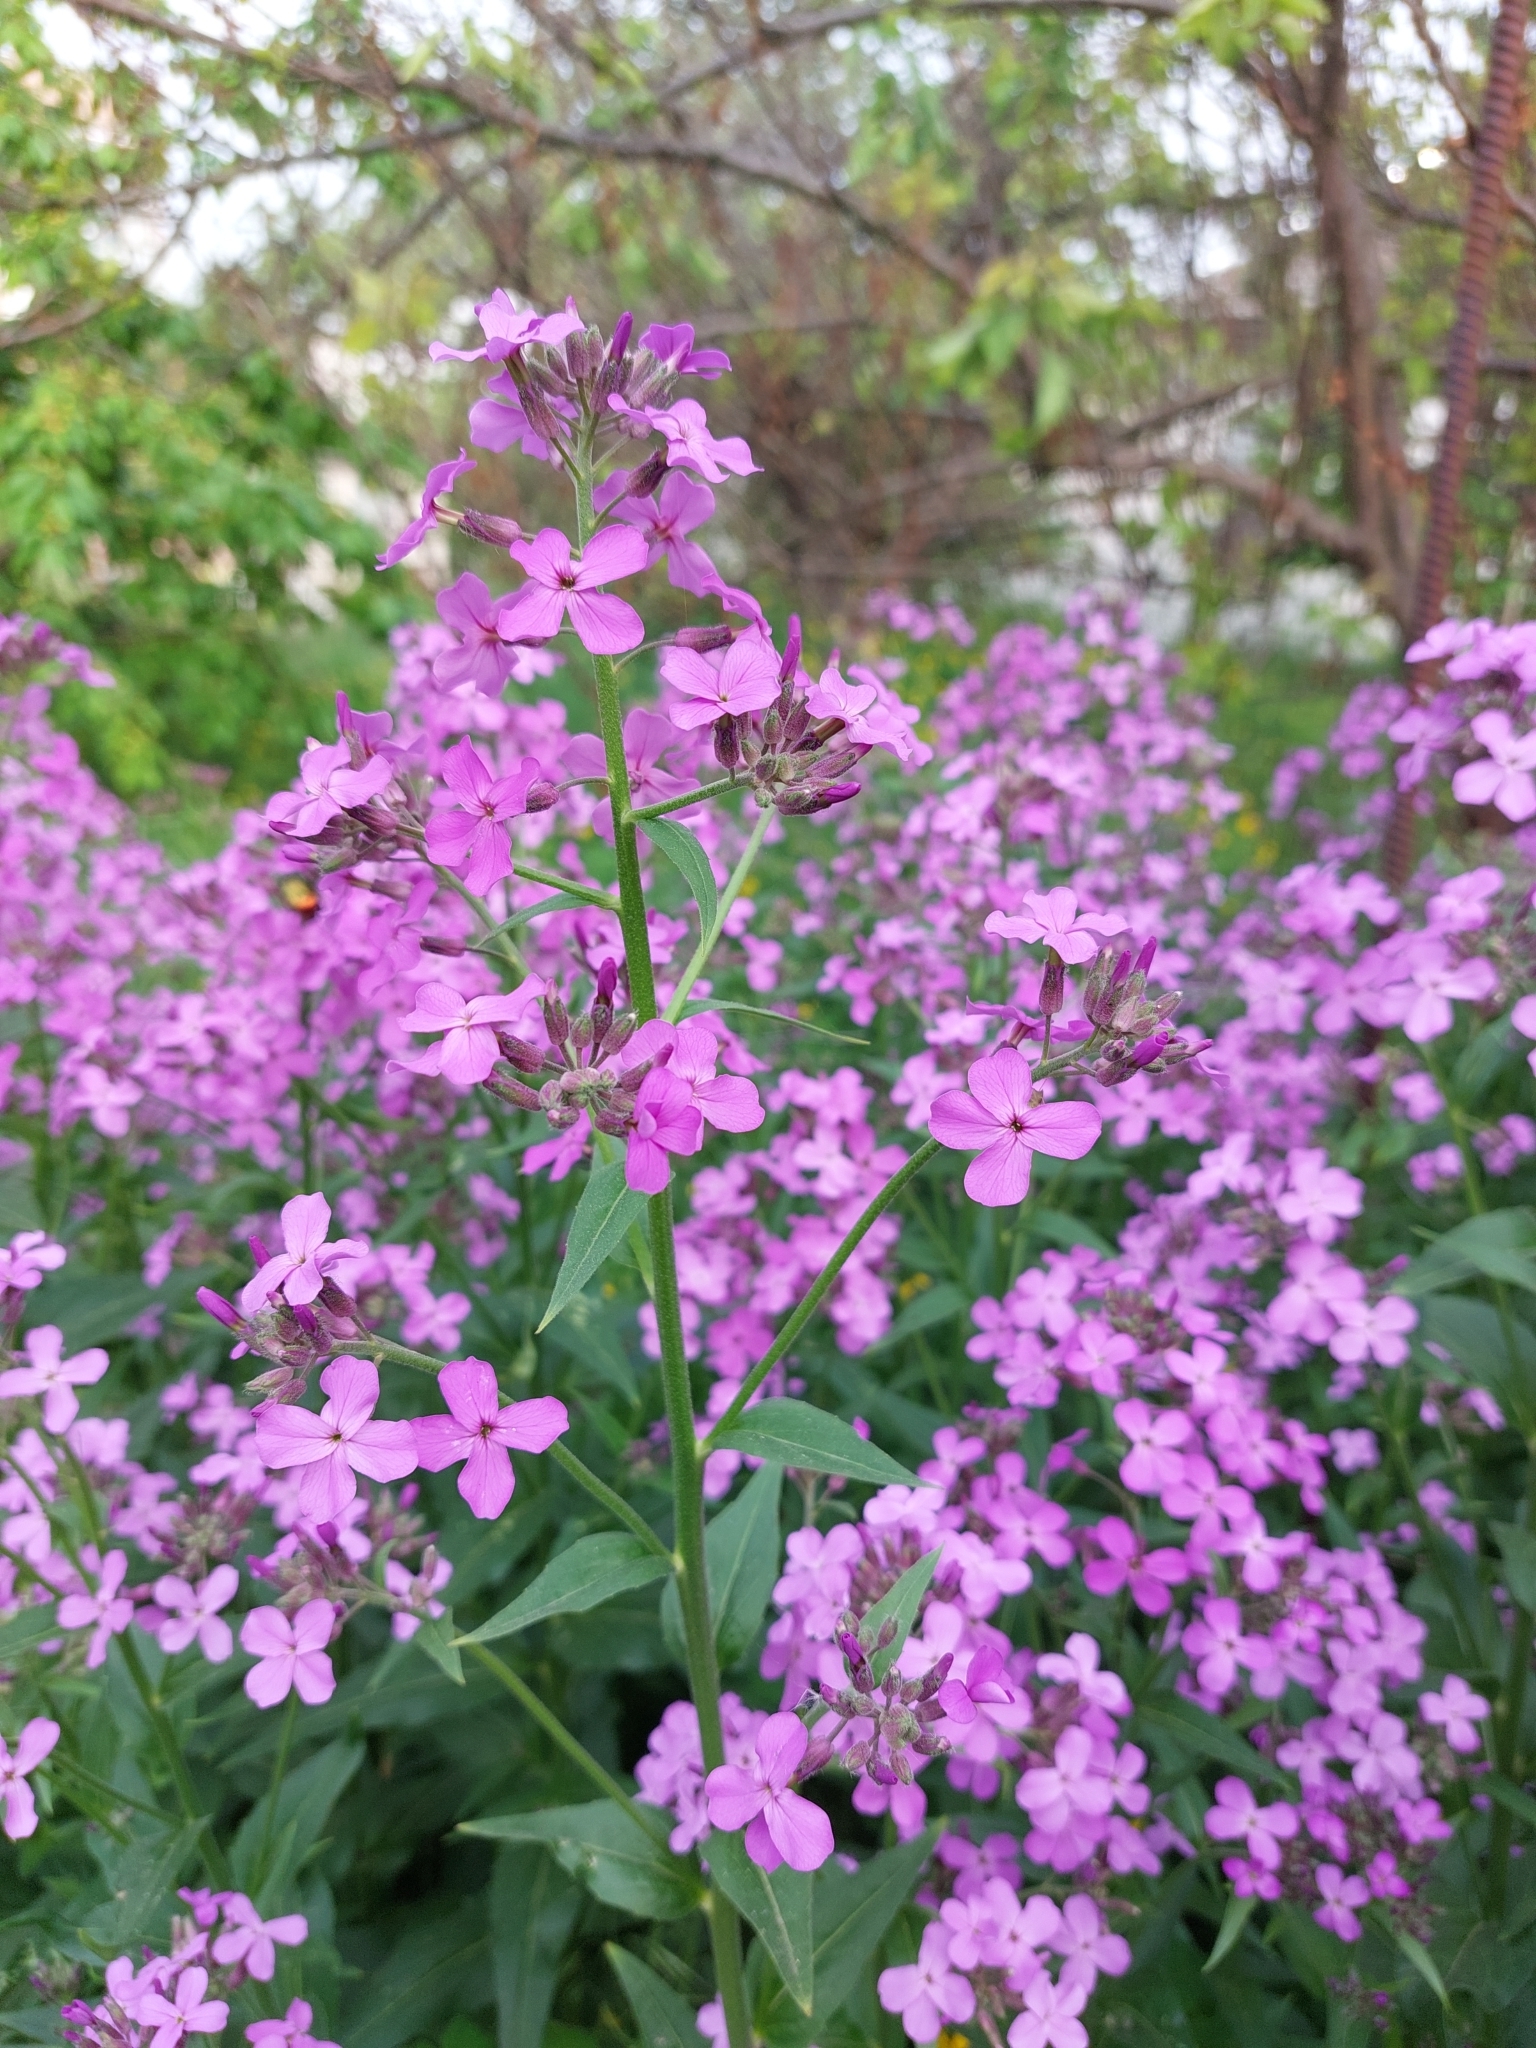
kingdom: Plantae
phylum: Tracheophyta
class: Magnoliopsida
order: Brassicales
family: Brassicaceae
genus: Hesperis
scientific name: Hesperis matronalis
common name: Dame's-violet
